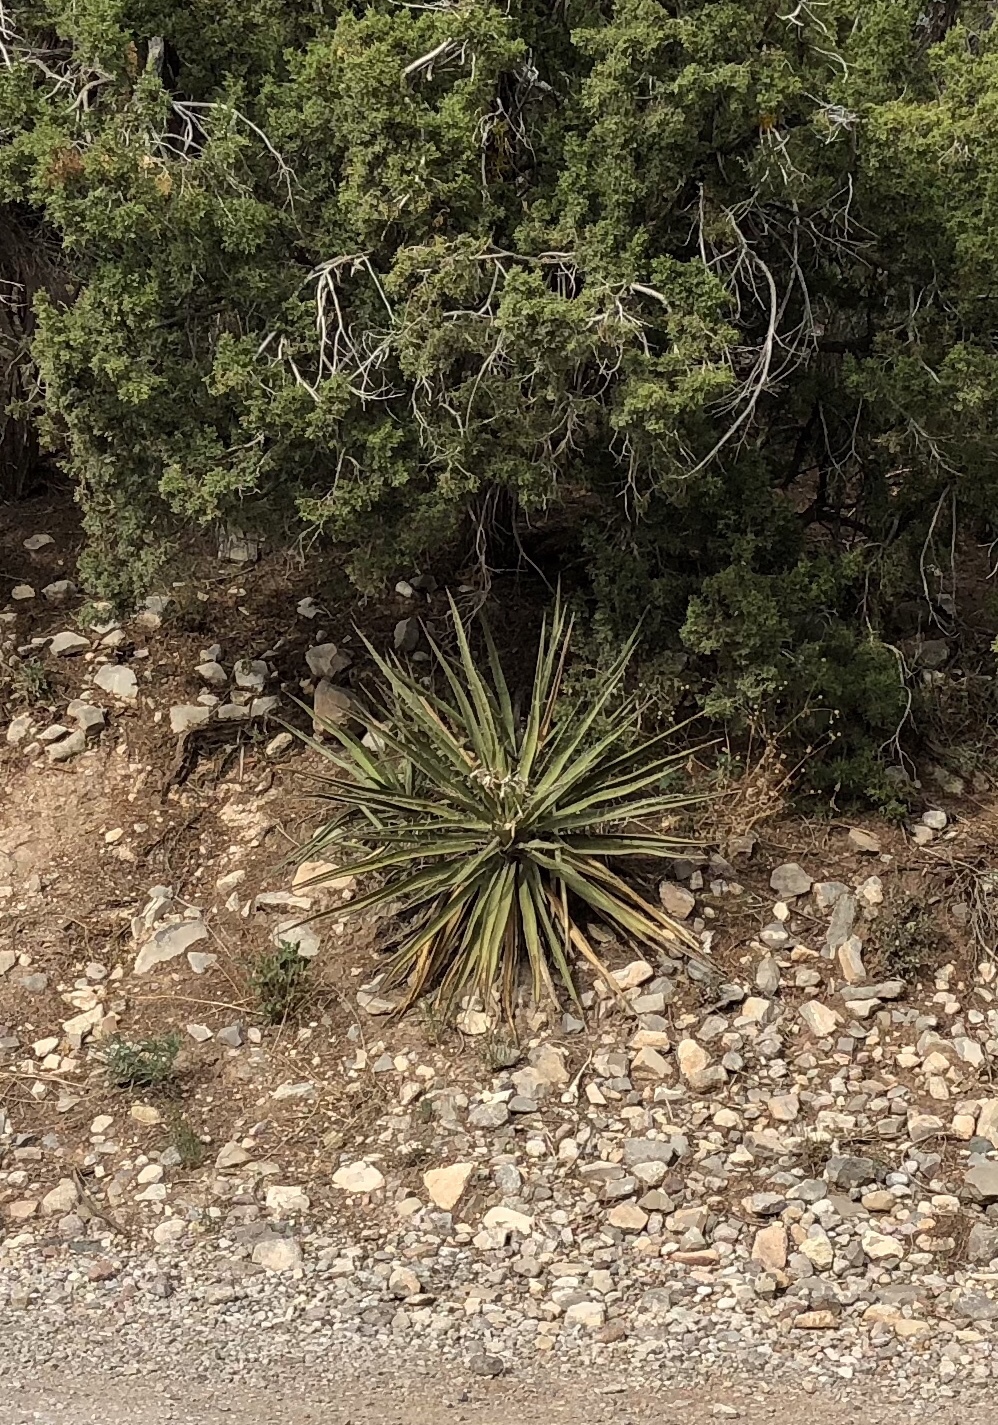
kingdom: Plantae
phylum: Tracheophyta
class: Liliopsida
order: Asparagales
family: Asparagaceae
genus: Yucca
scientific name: Yucca baccata
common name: Banana yucca
